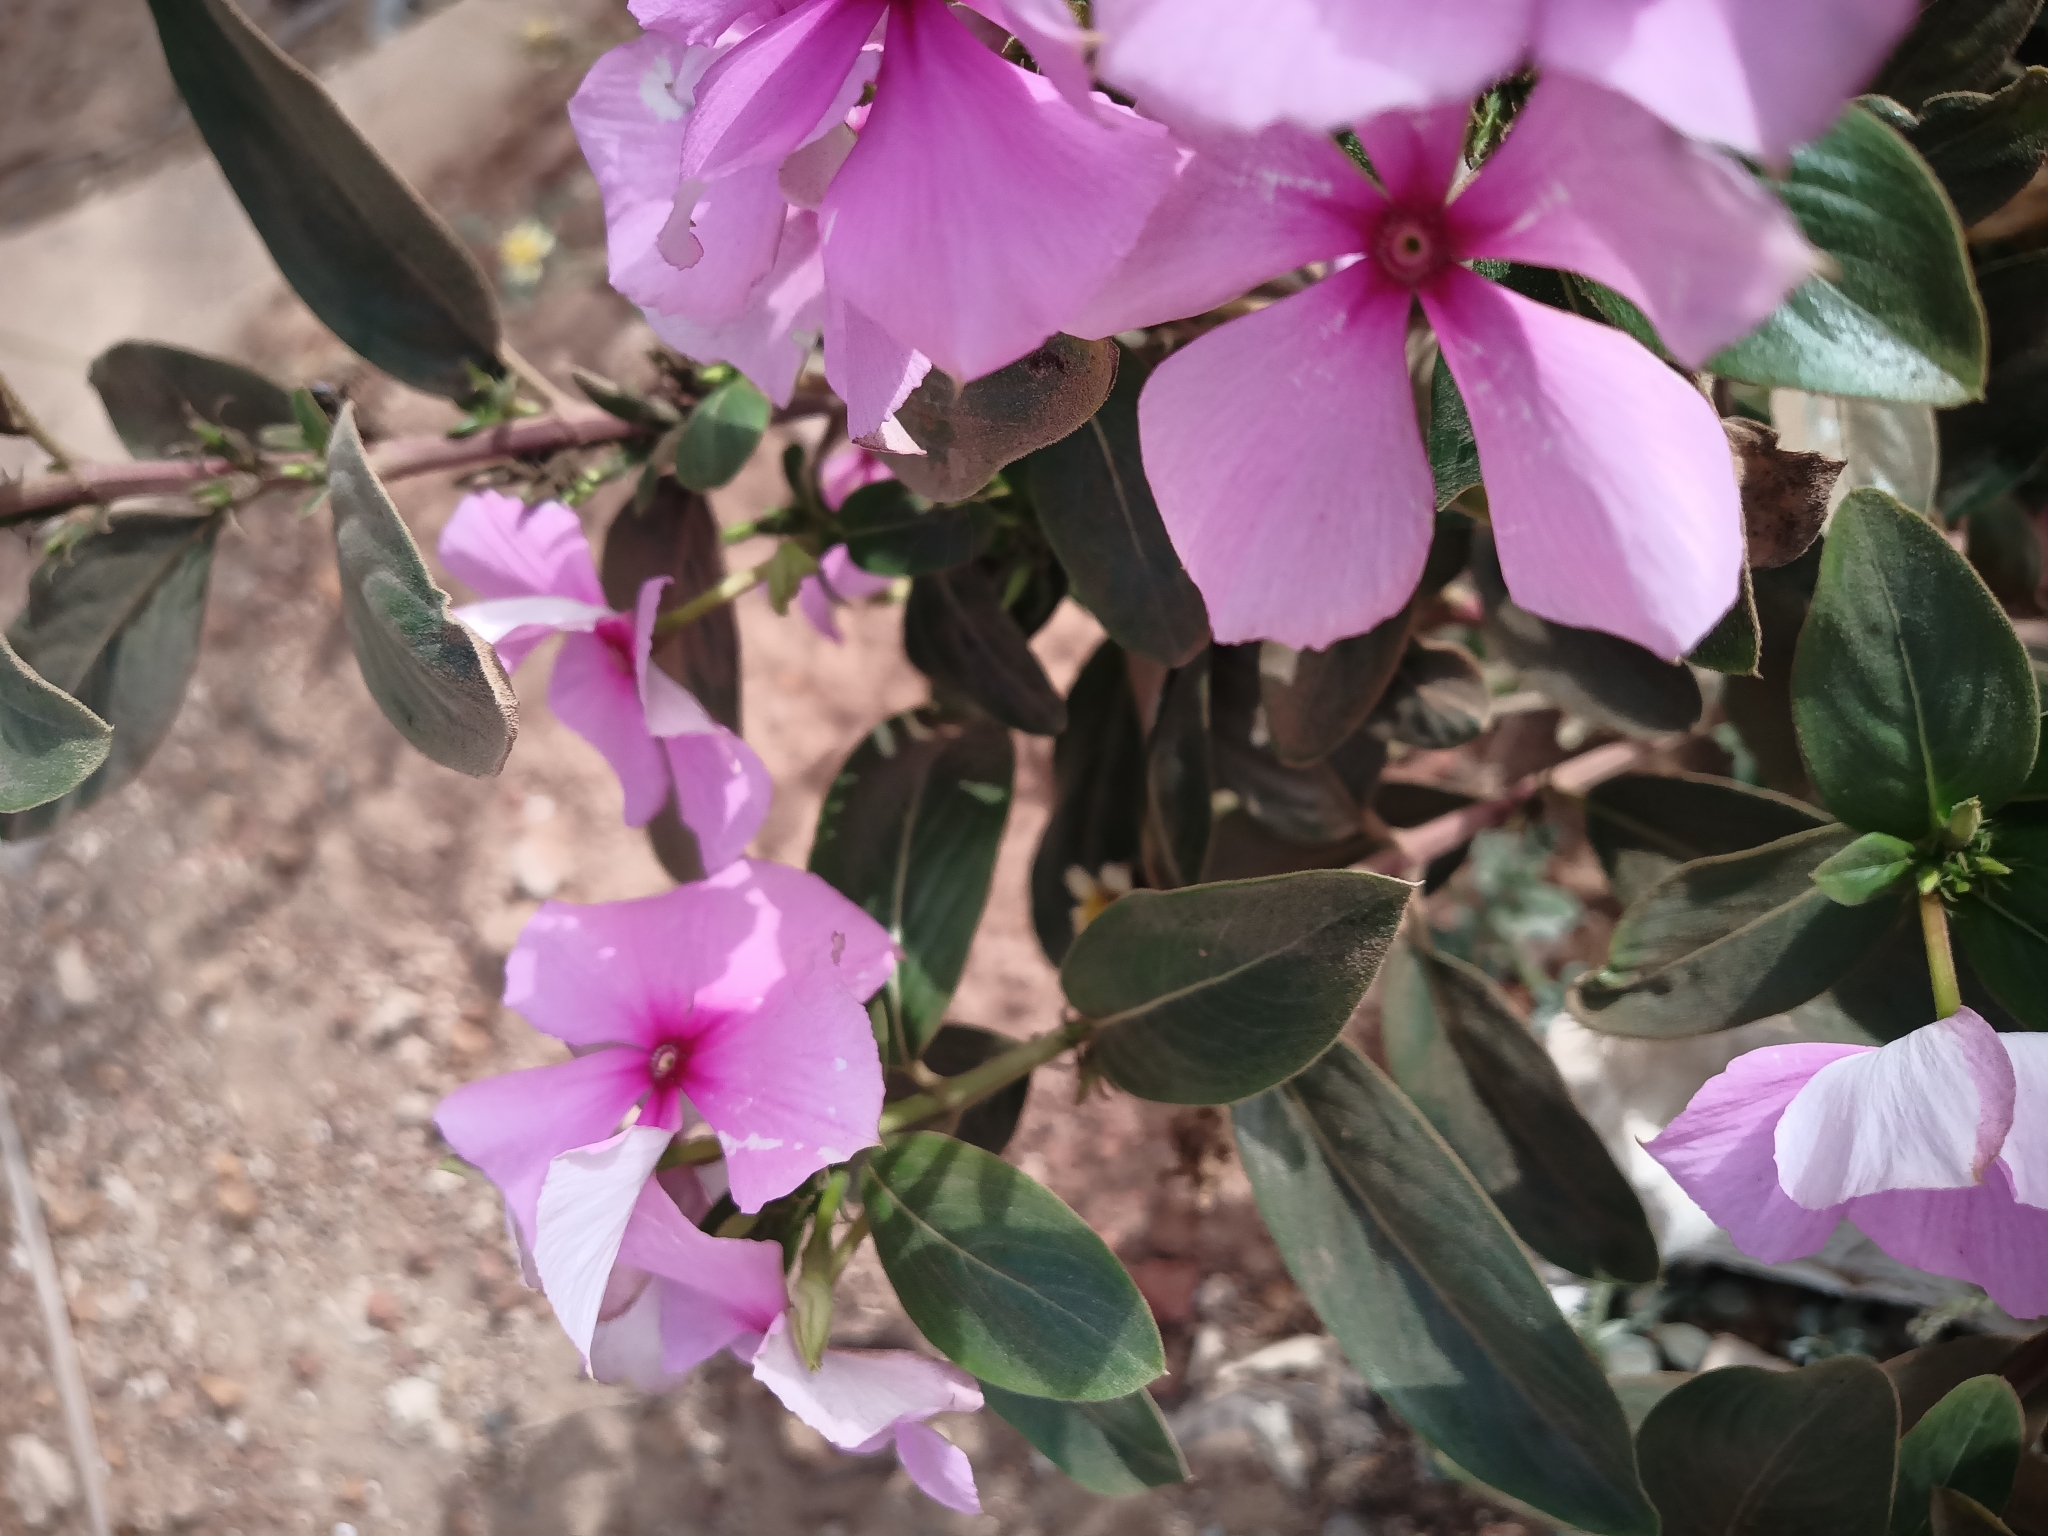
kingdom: Plantae
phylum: Tracheophyta
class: Magnoliopsida
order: Gentianales
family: Apocynaceae
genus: Catharanthus
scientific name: Catharanthus roseus
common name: Madagascar periwinkle
